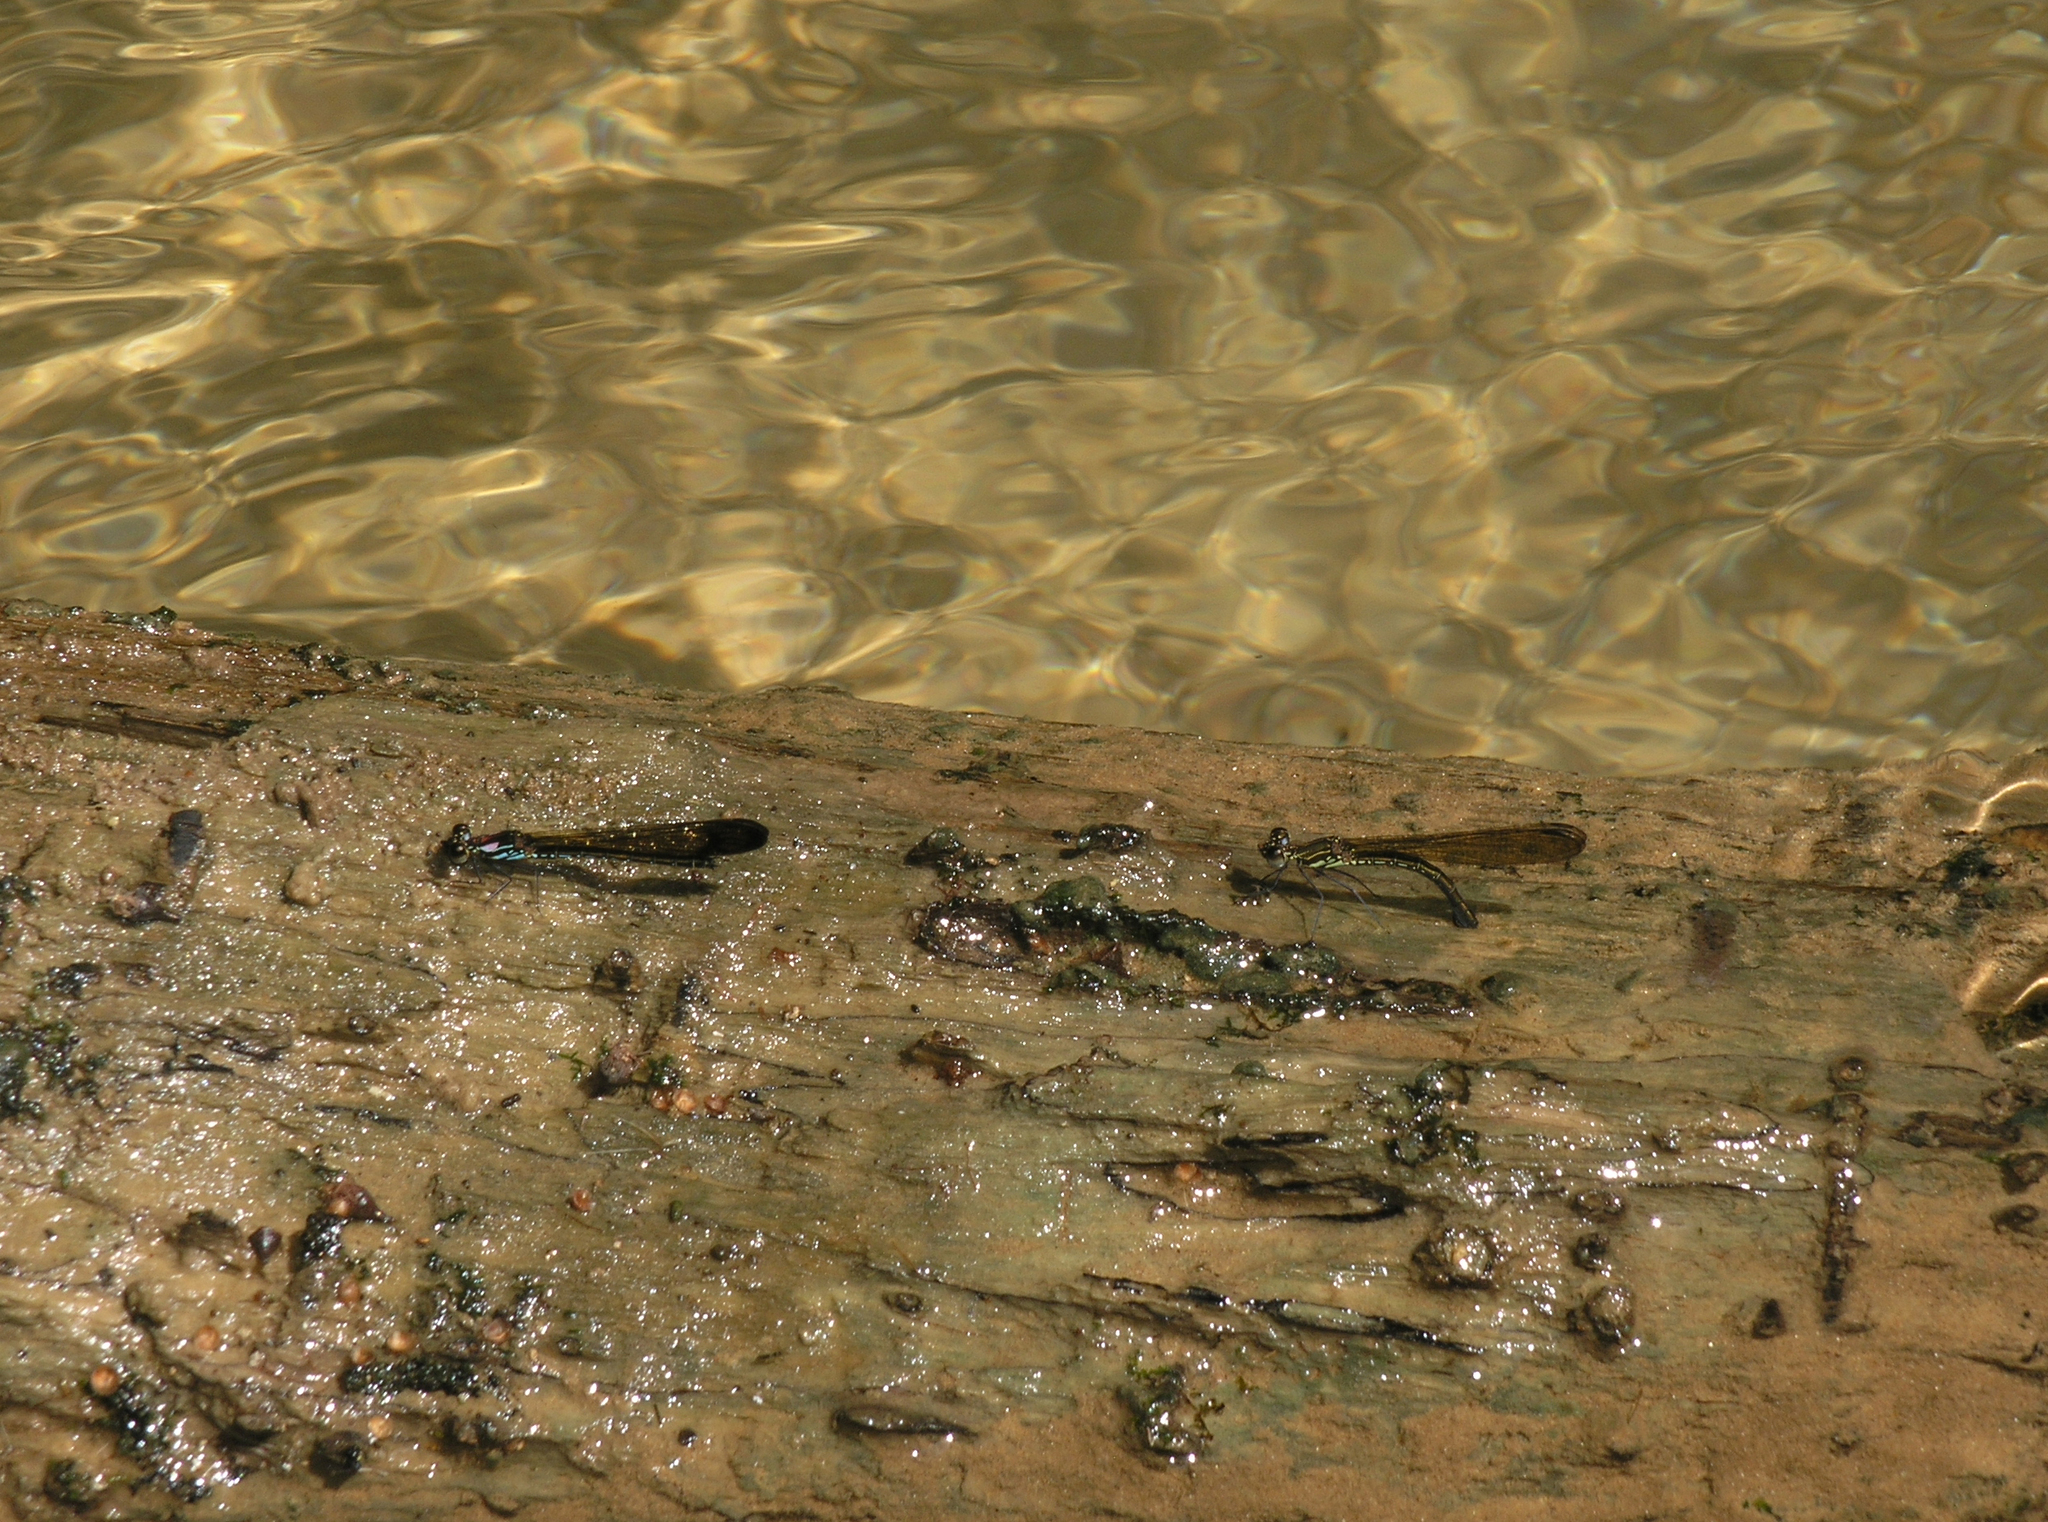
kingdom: Animalia
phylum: Arthropoda
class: Insecta
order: Odonata
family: Chlorocyphidae
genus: Heliocypha
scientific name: Heliocypha biforata
